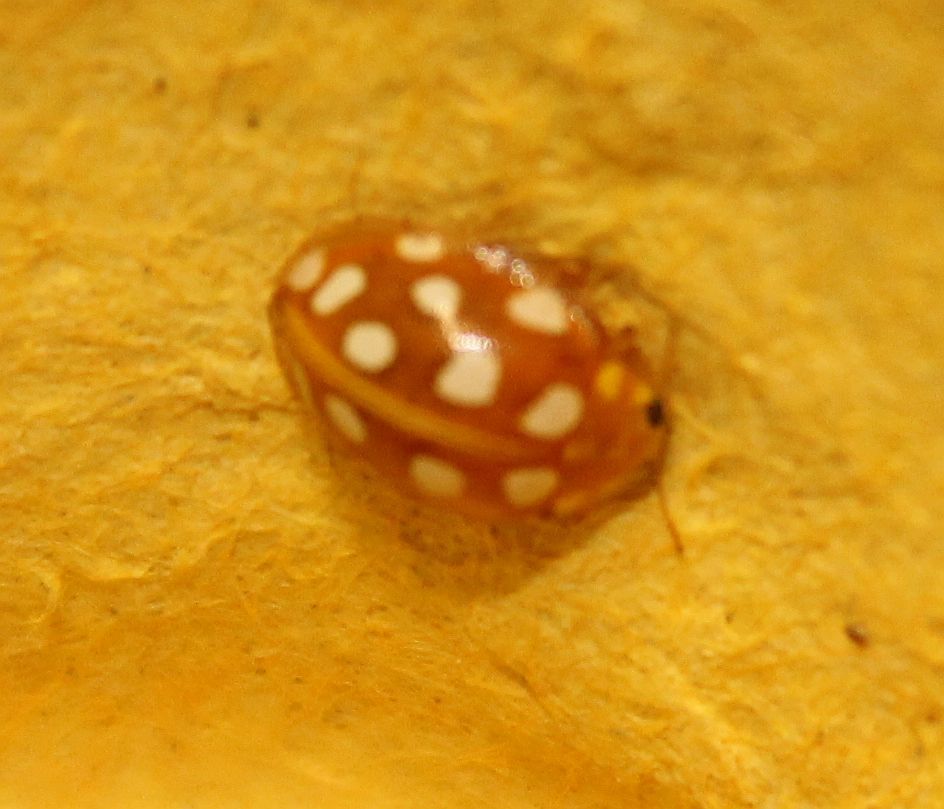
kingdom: Animalia
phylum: Arthropoda
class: Insecta
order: Coleoptera
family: Coccinellidae
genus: Halyzia
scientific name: Halyzia sedecimguttata
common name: Orange ladybird
